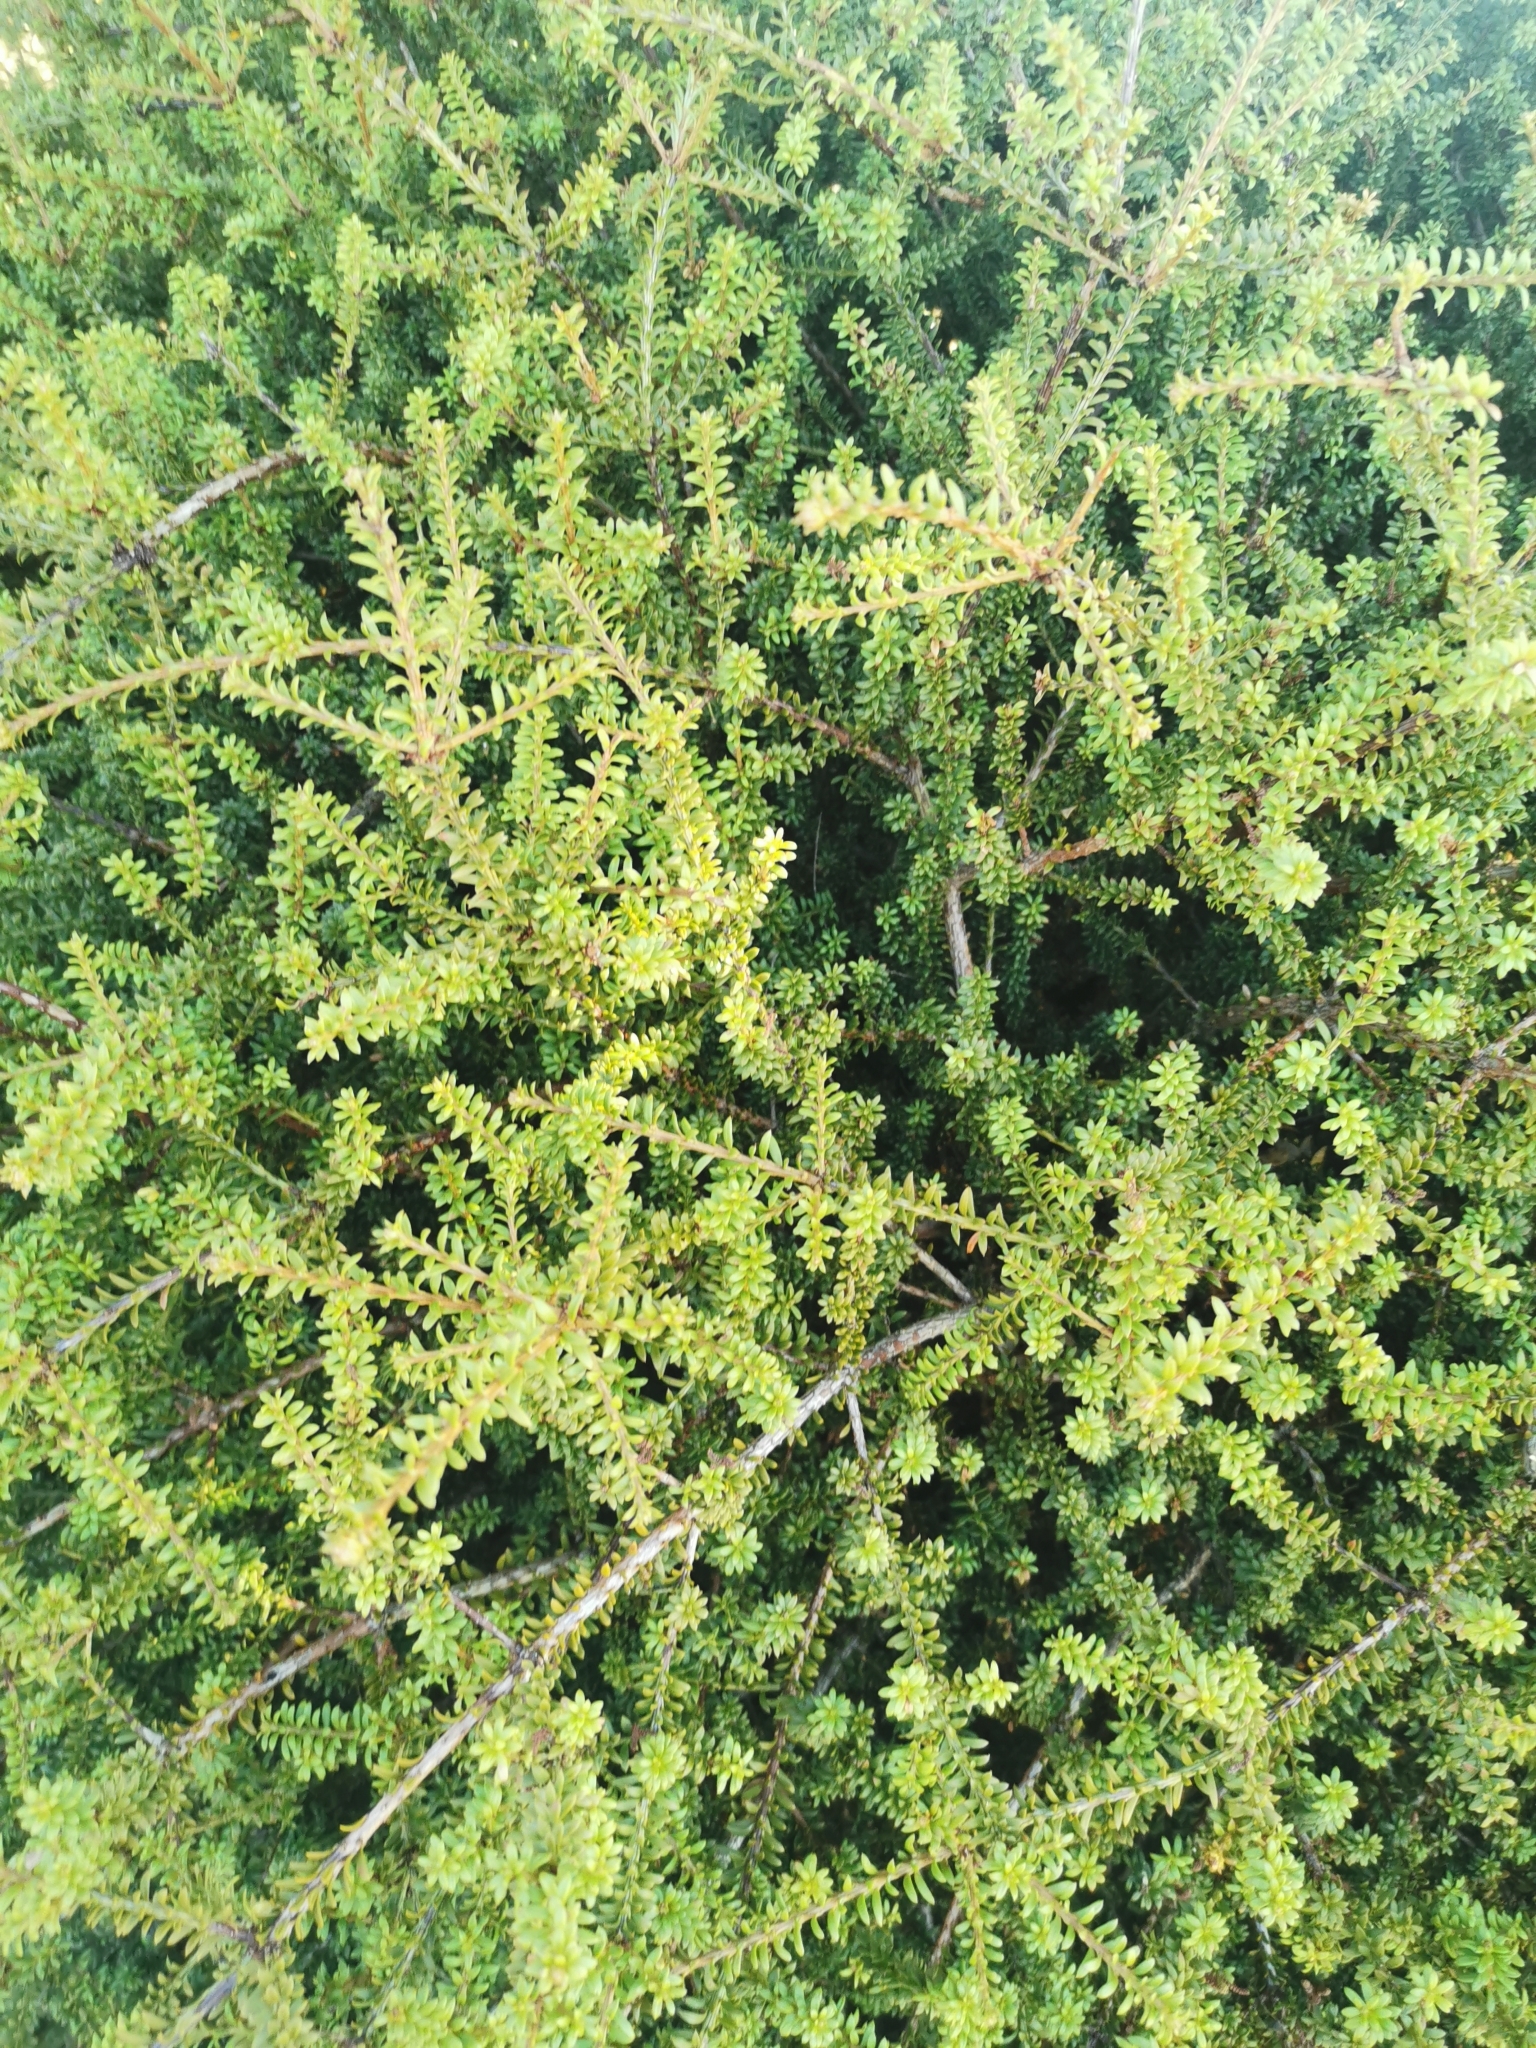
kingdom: Plantae
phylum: Tracheophyta
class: Pinopsida
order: Pinales
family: Podocarpaceae
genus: Podocarpus
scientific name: Podocarpus nivalis
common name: Alpine totara
